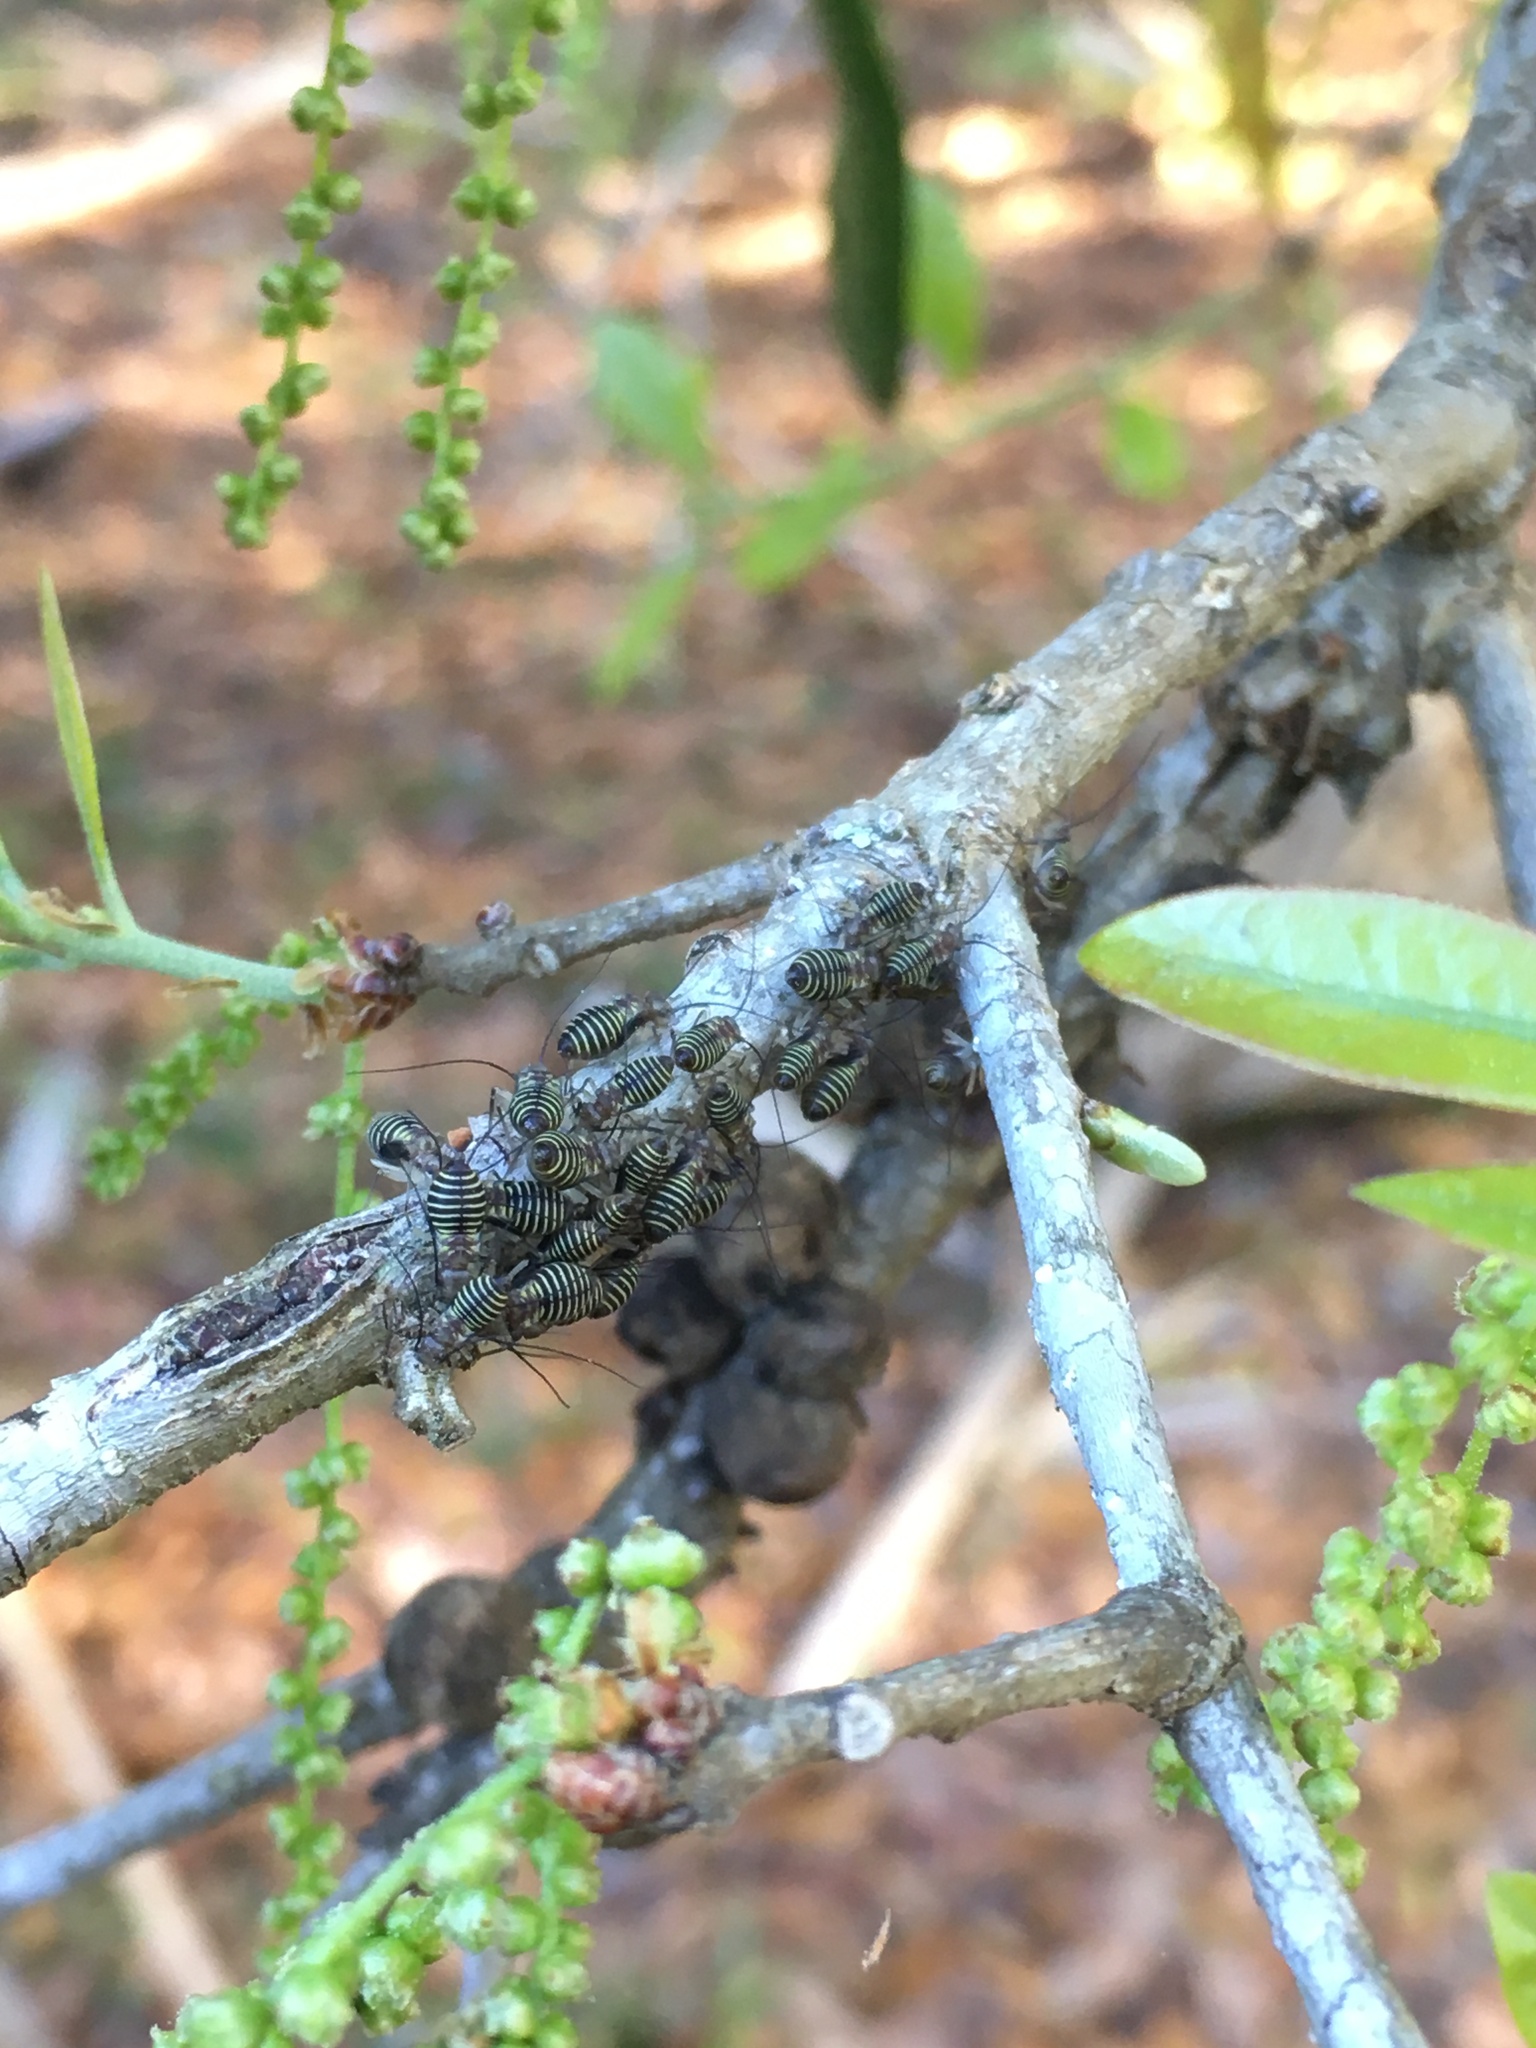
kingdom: Animalia
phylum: Arthropoda
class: Insecta
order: Psocodea
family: Psocidae
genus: Cerastipsocus
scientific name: Cerastipsocus venosus
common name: Tree cattle
